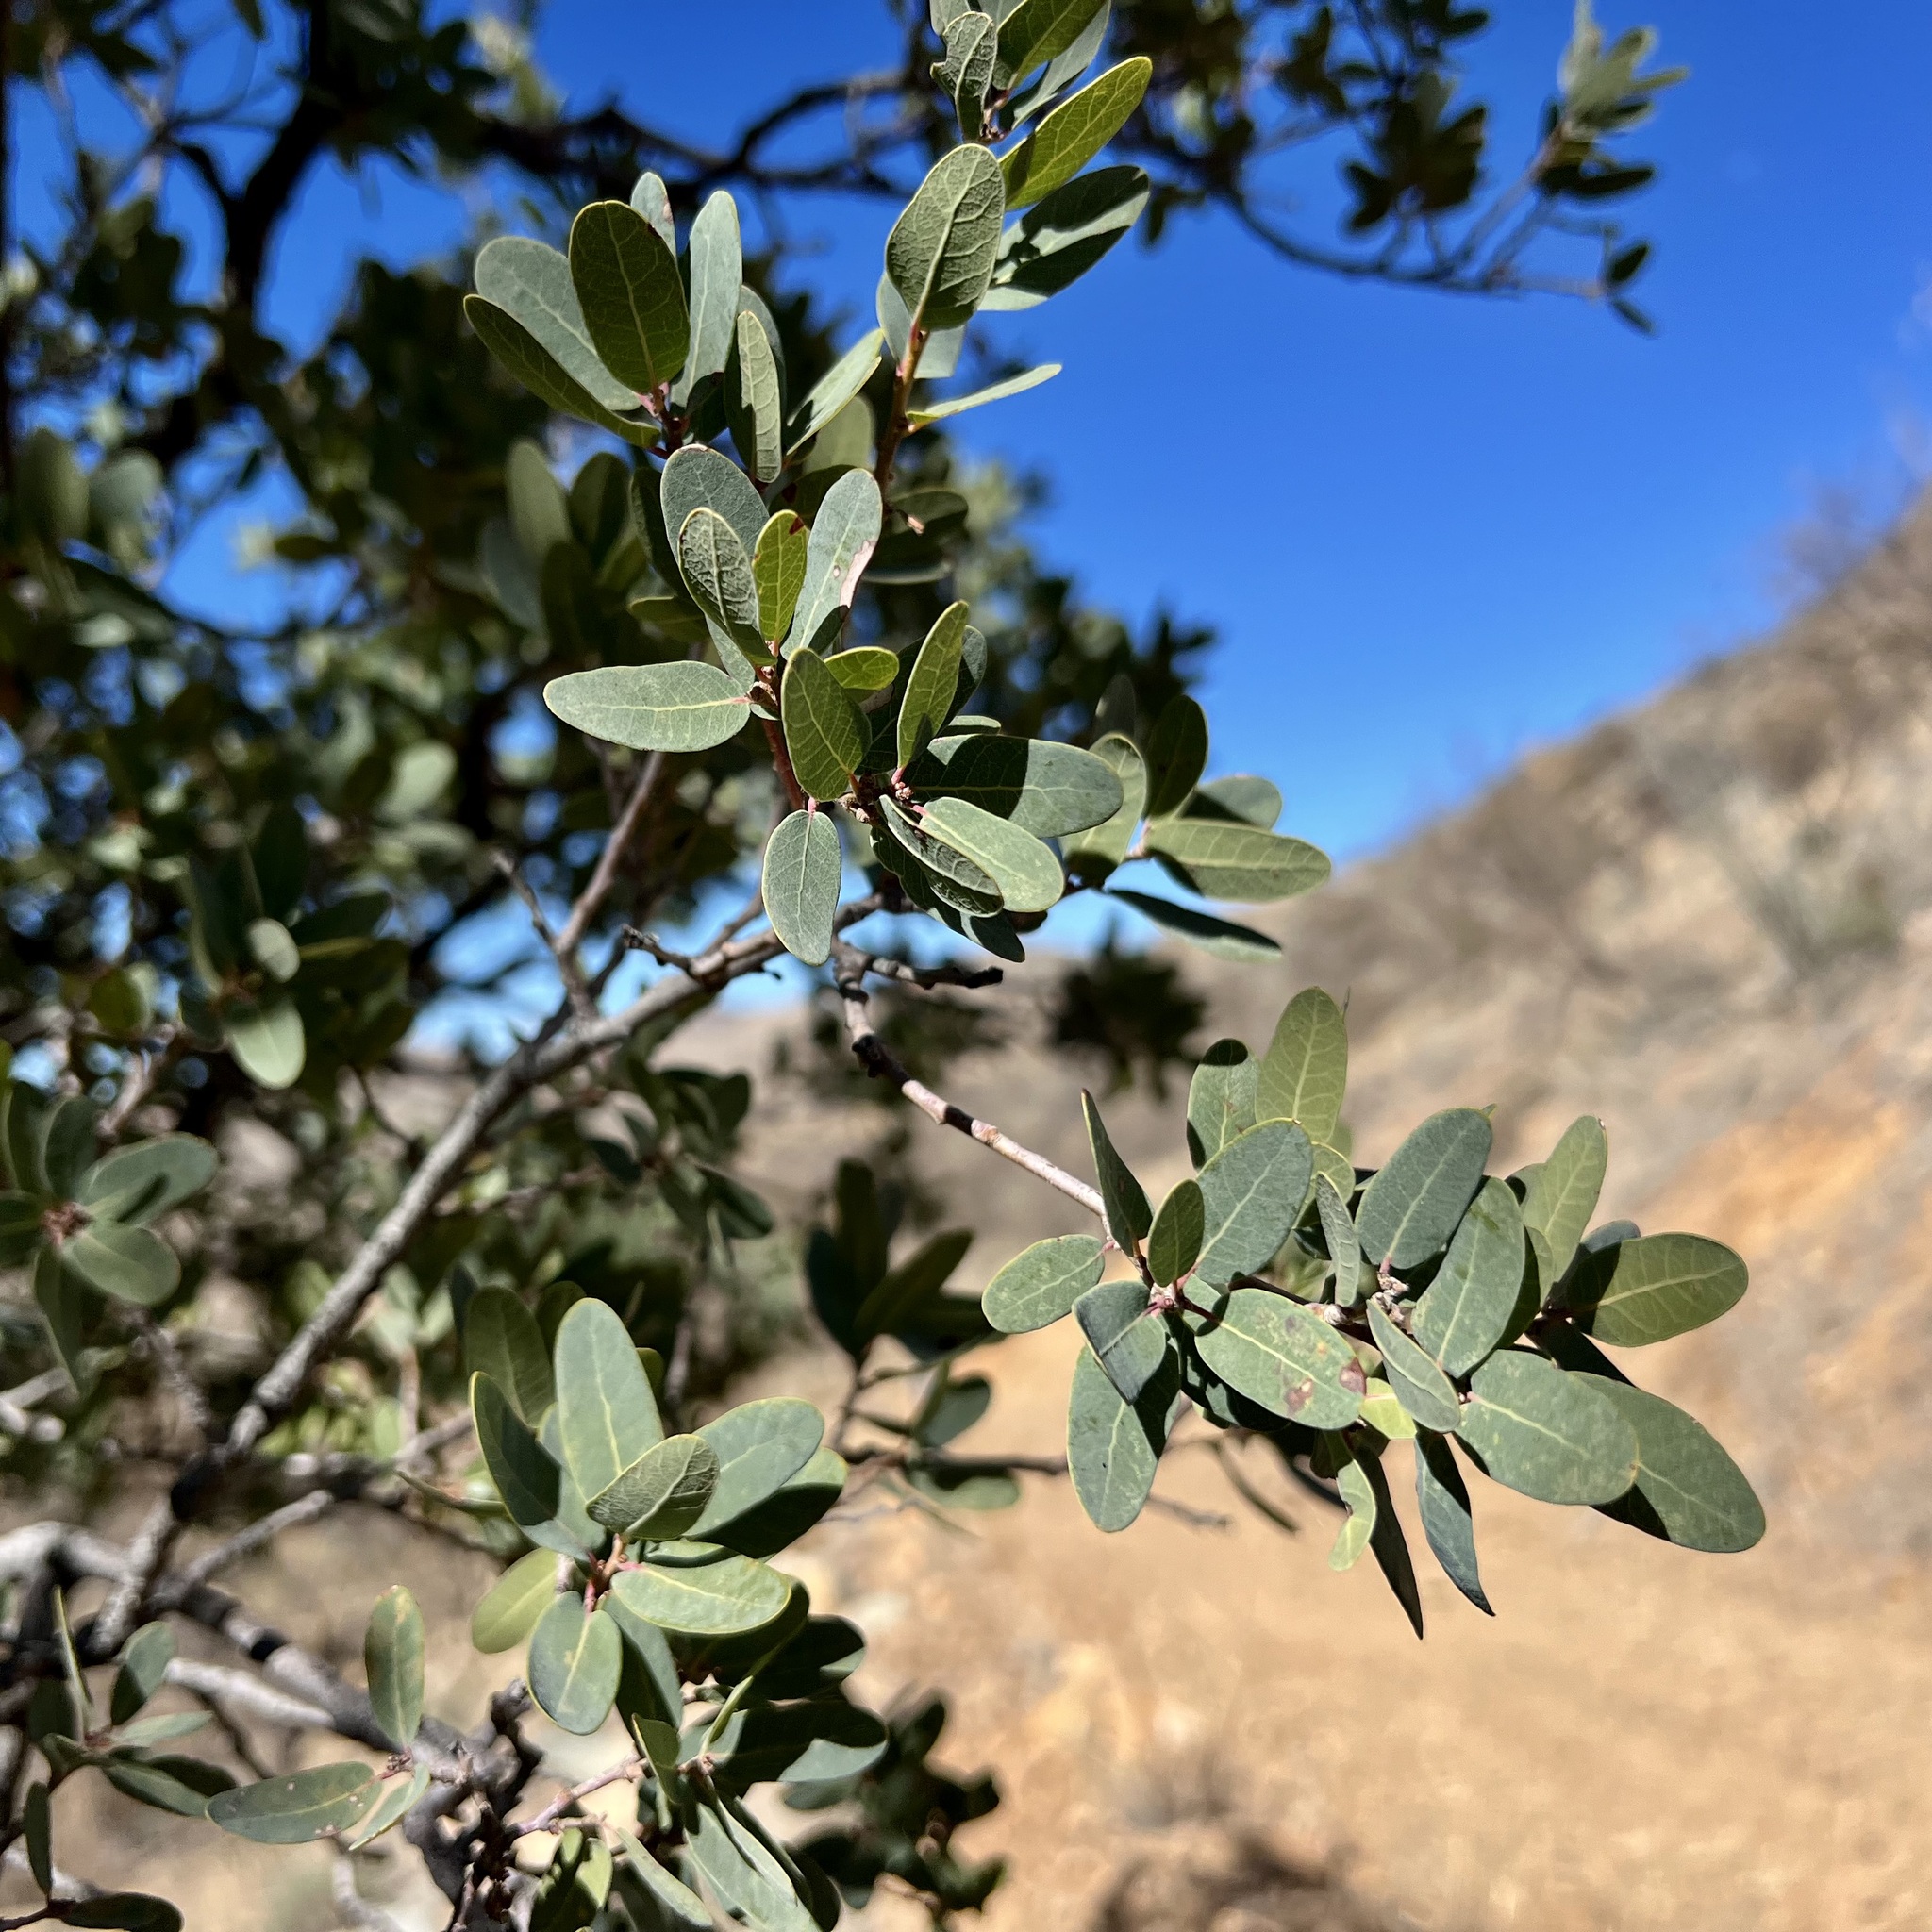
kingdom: Plantae
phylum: Tracheophyta
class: Magnoliopsida
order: Fagales
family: Fagaceae
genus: Quercus
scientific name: Quercus oblongifolia
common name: Mexican blue oak
